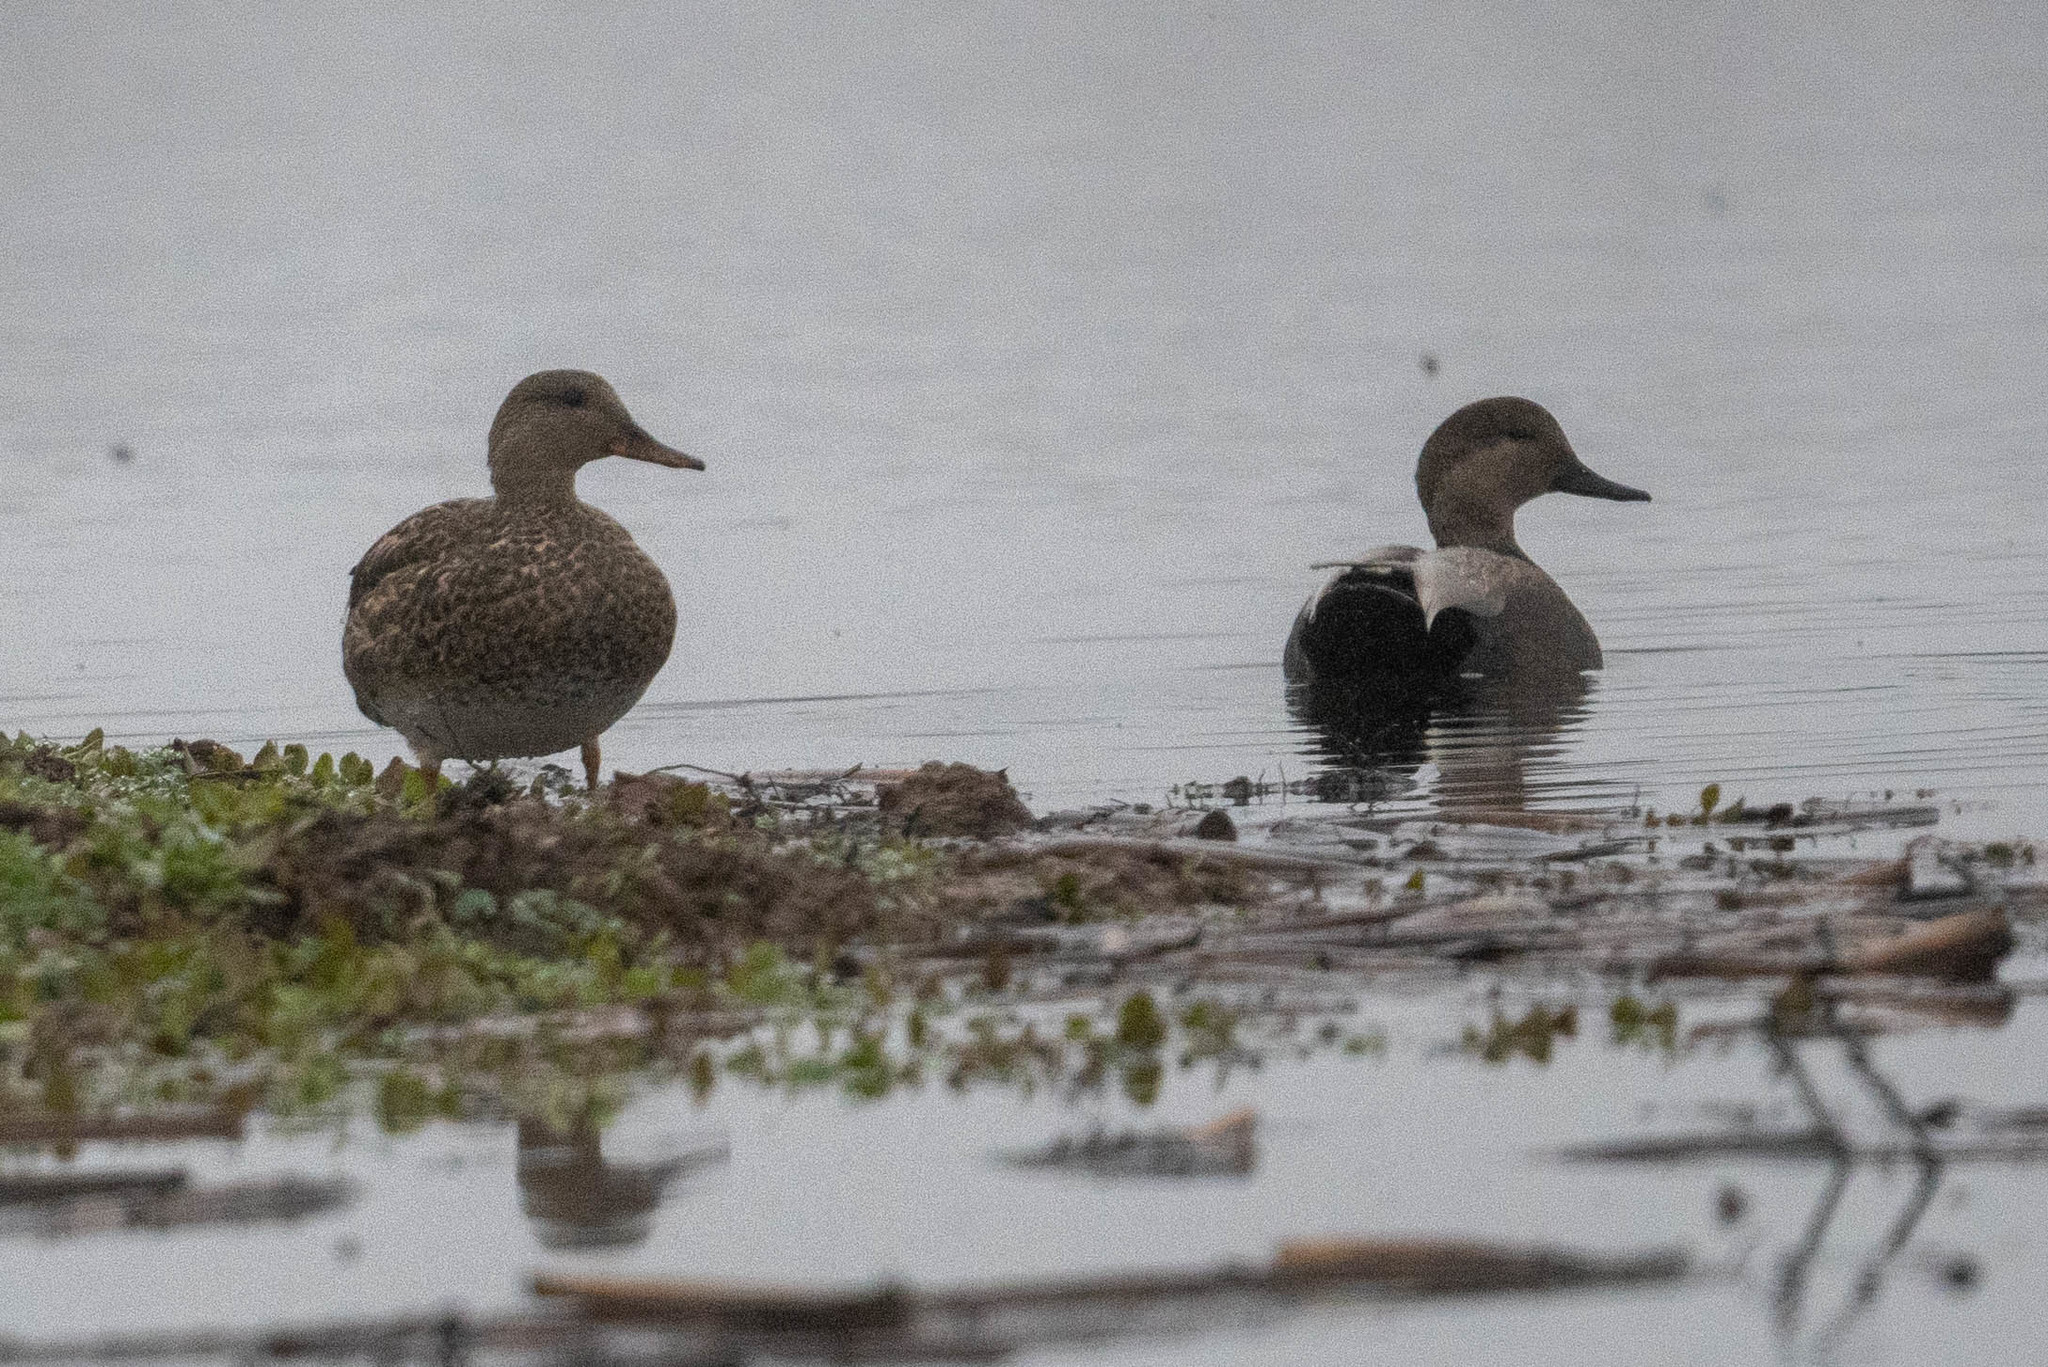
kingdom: Animalia
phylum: Chordata
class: Aves
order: Anseriformes
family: Anatidae
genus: Mareca
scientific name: Mareca strepera
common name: Gadwall
